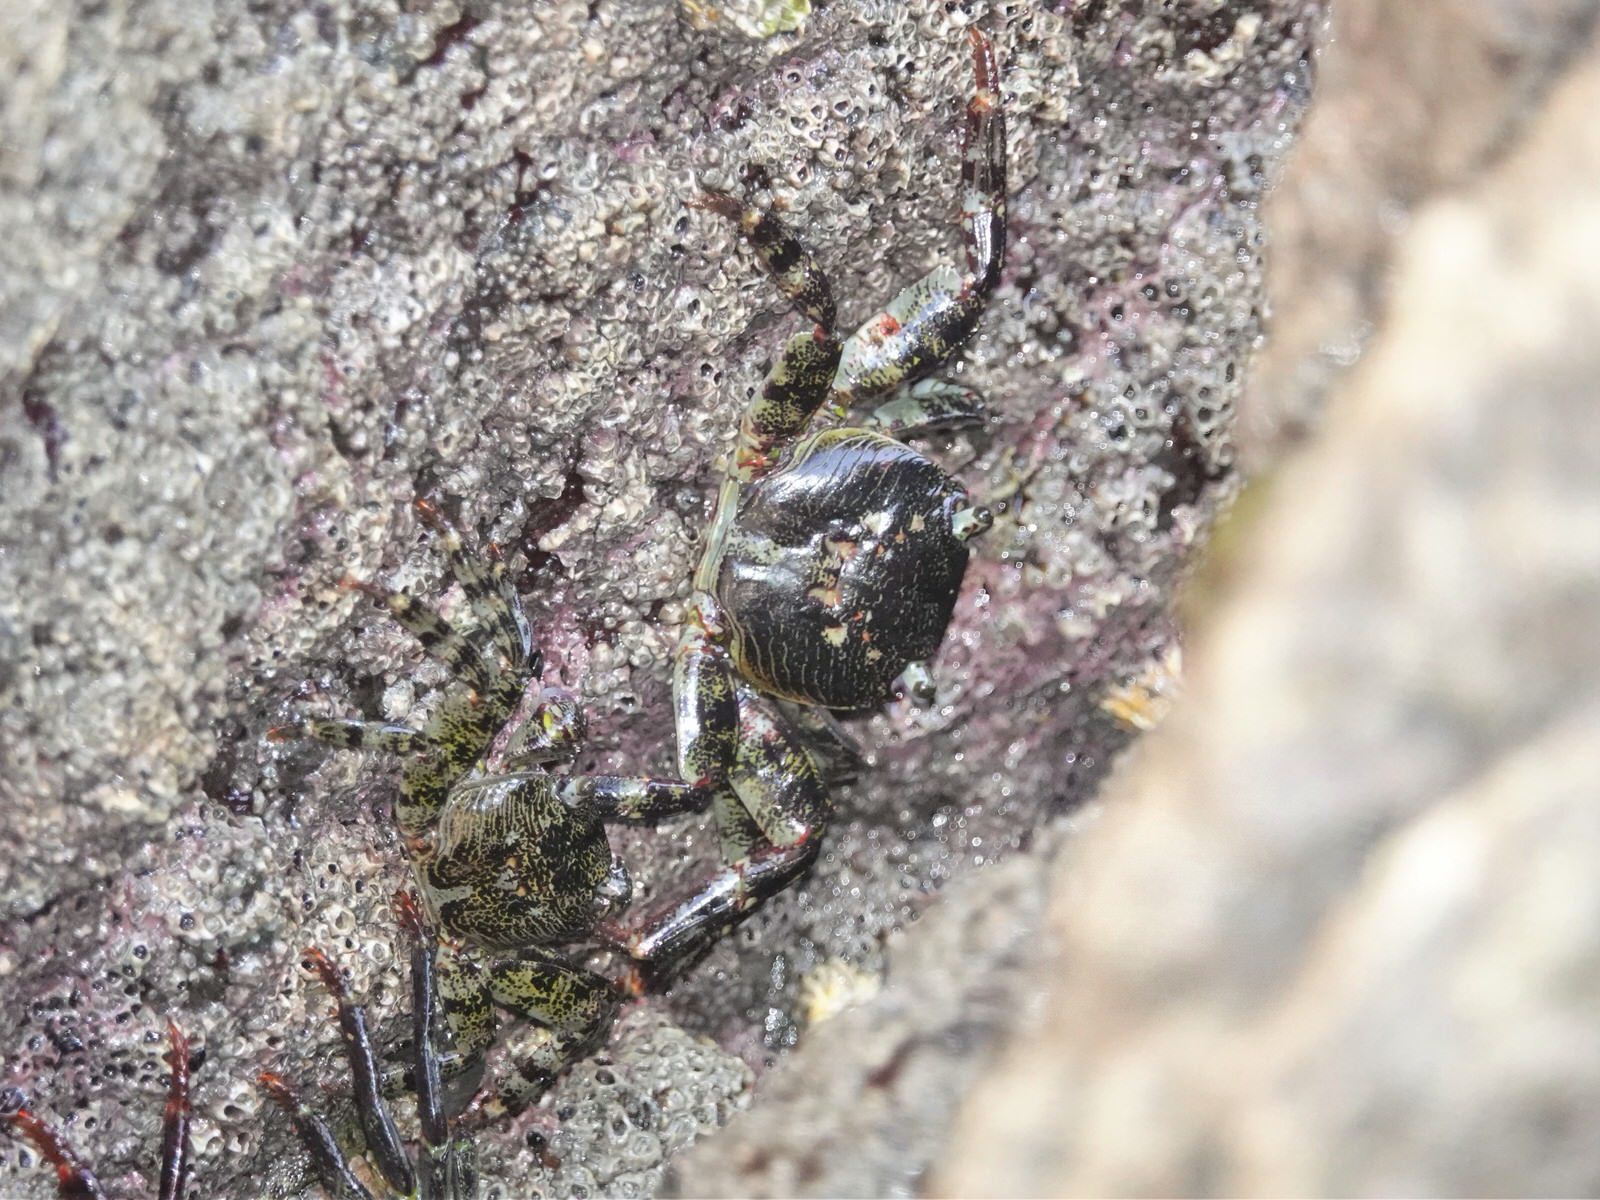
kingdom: Animalia
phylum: Arthropoda
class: Malacostraca
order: Decapoda
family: Grapsidae
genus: Leptograpsus
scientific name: Leptograpsus variegatus
